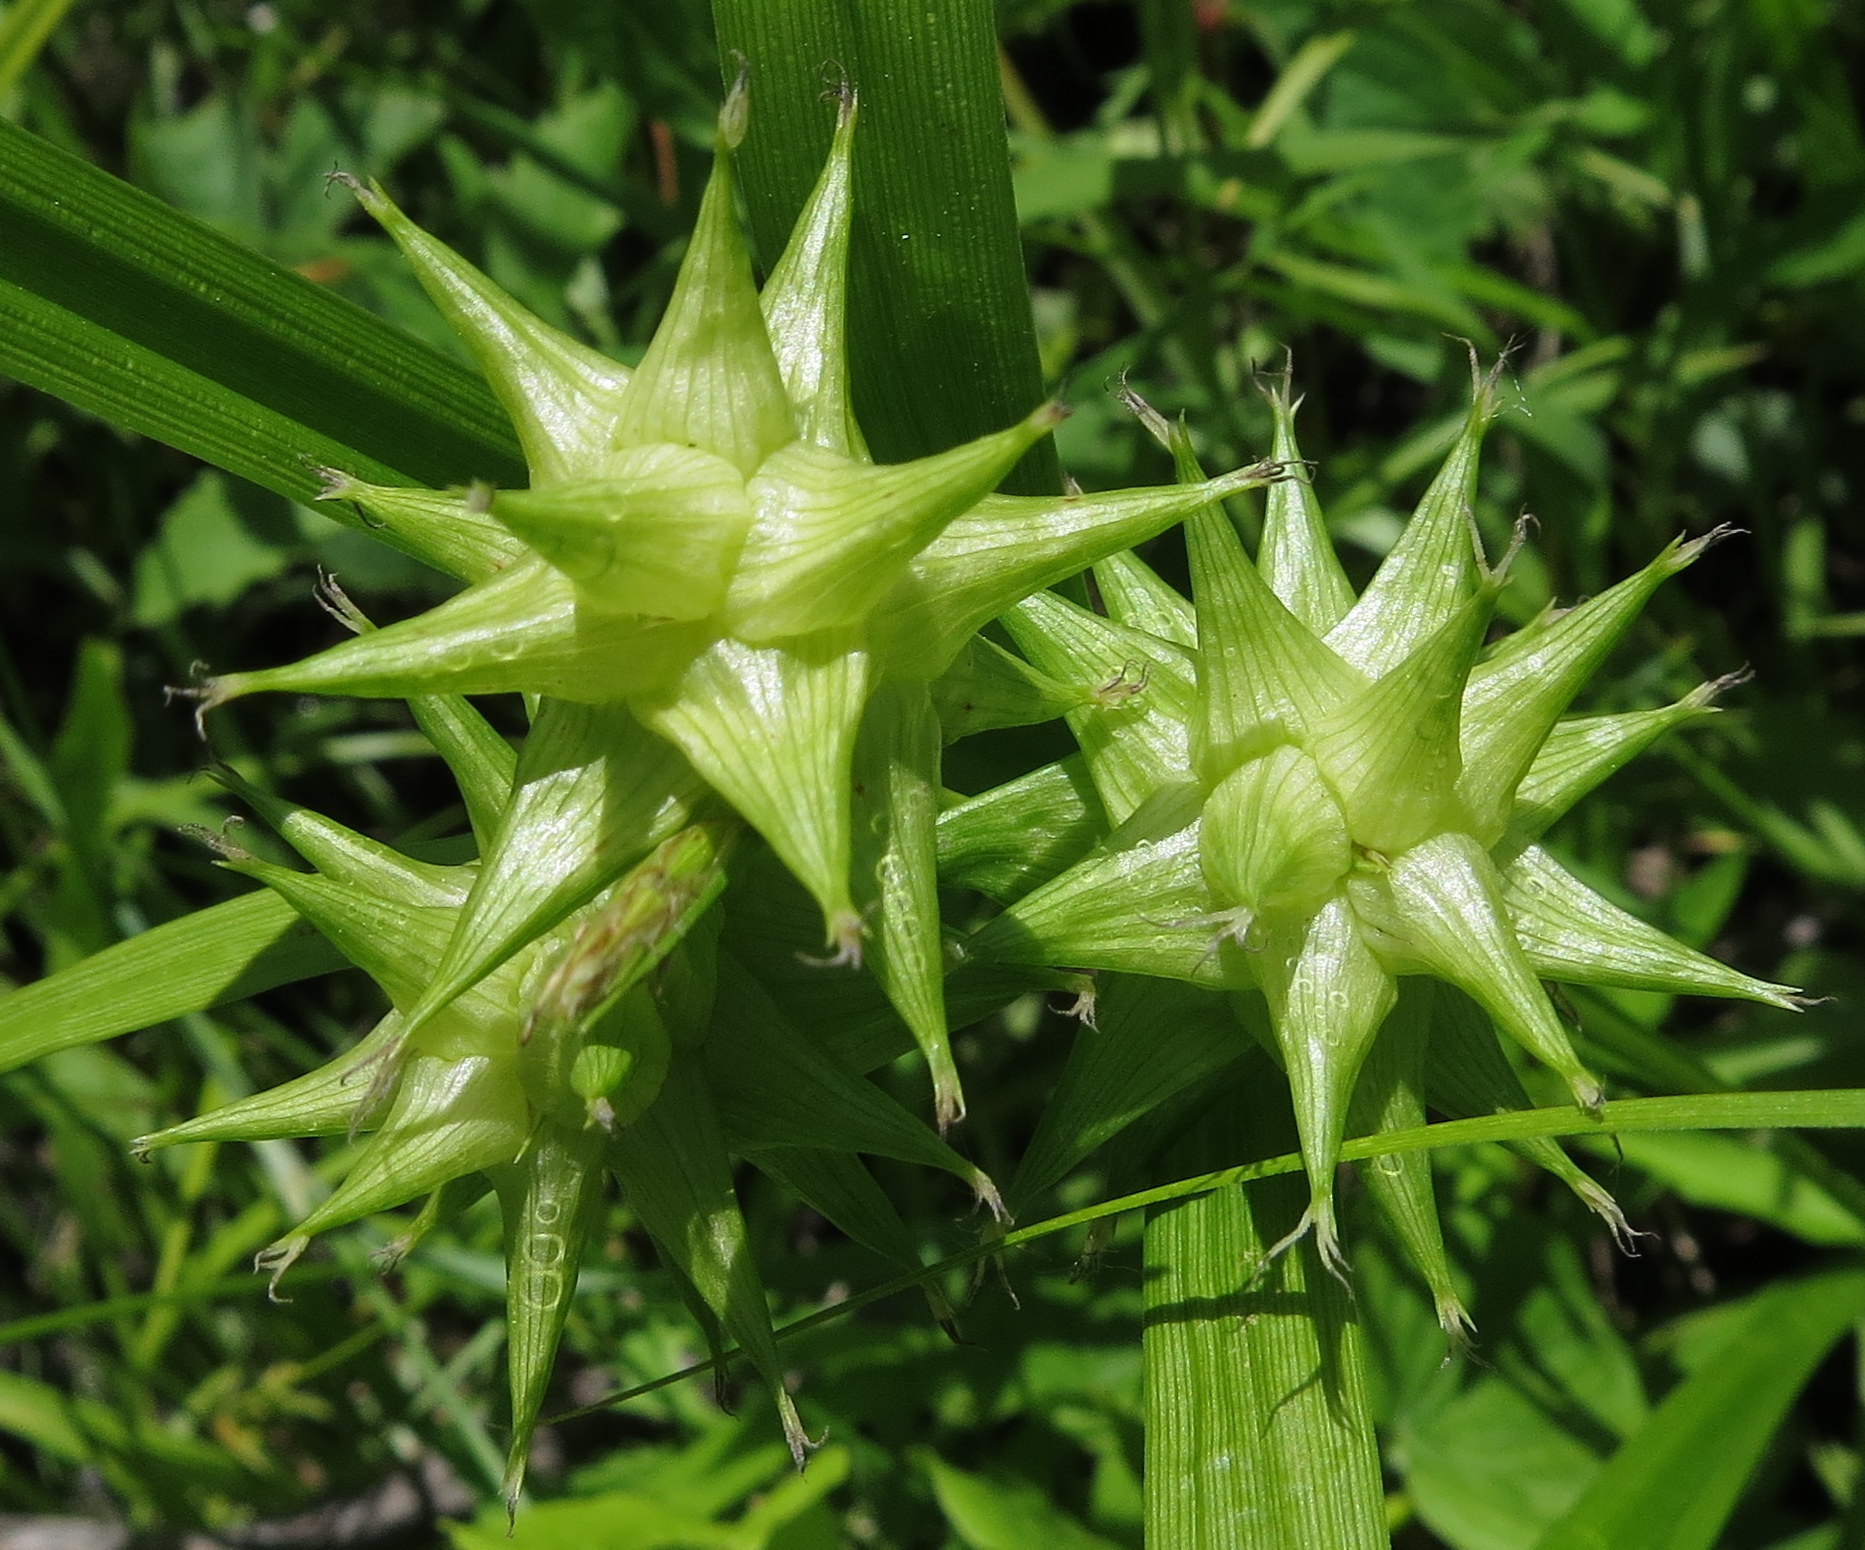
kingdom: Plantae
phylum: Tracheophyta
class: Liliopsida
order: Poales
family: Cyperaceae
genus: Carex
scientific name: Carex grayi
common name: Asa gray's sedge
